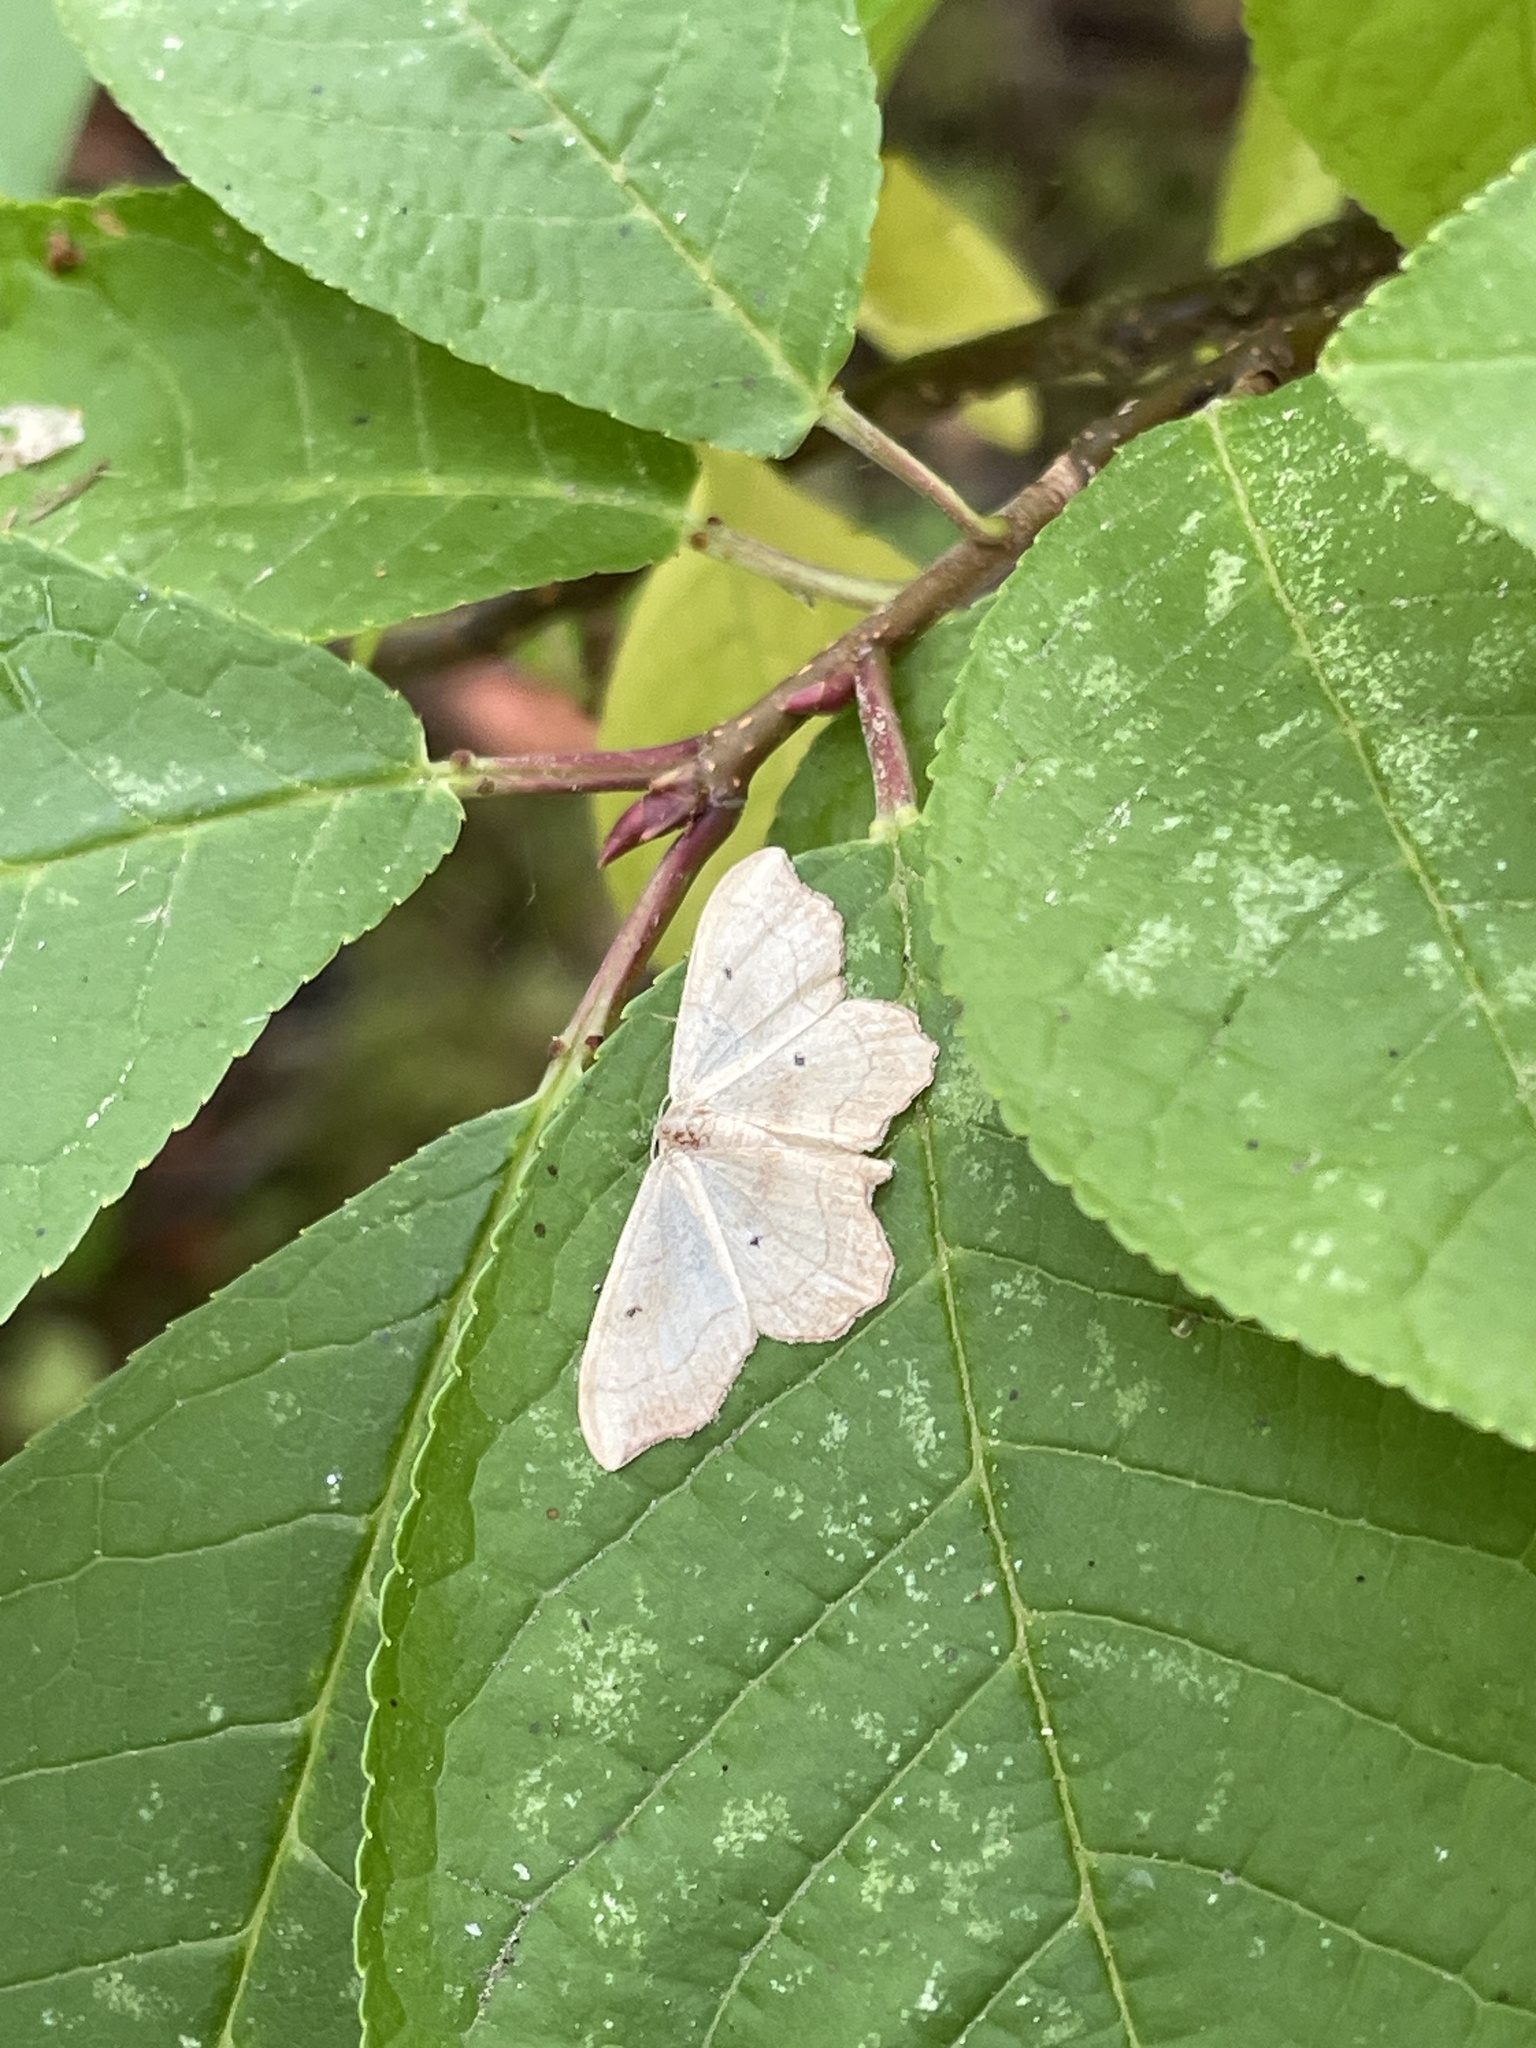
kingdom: Animalia
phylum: Arthropoda
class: Insecta
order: Lepidoptera
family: Geometridae
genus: Idaea
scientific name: Idaea emarginata
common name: Small scallop
